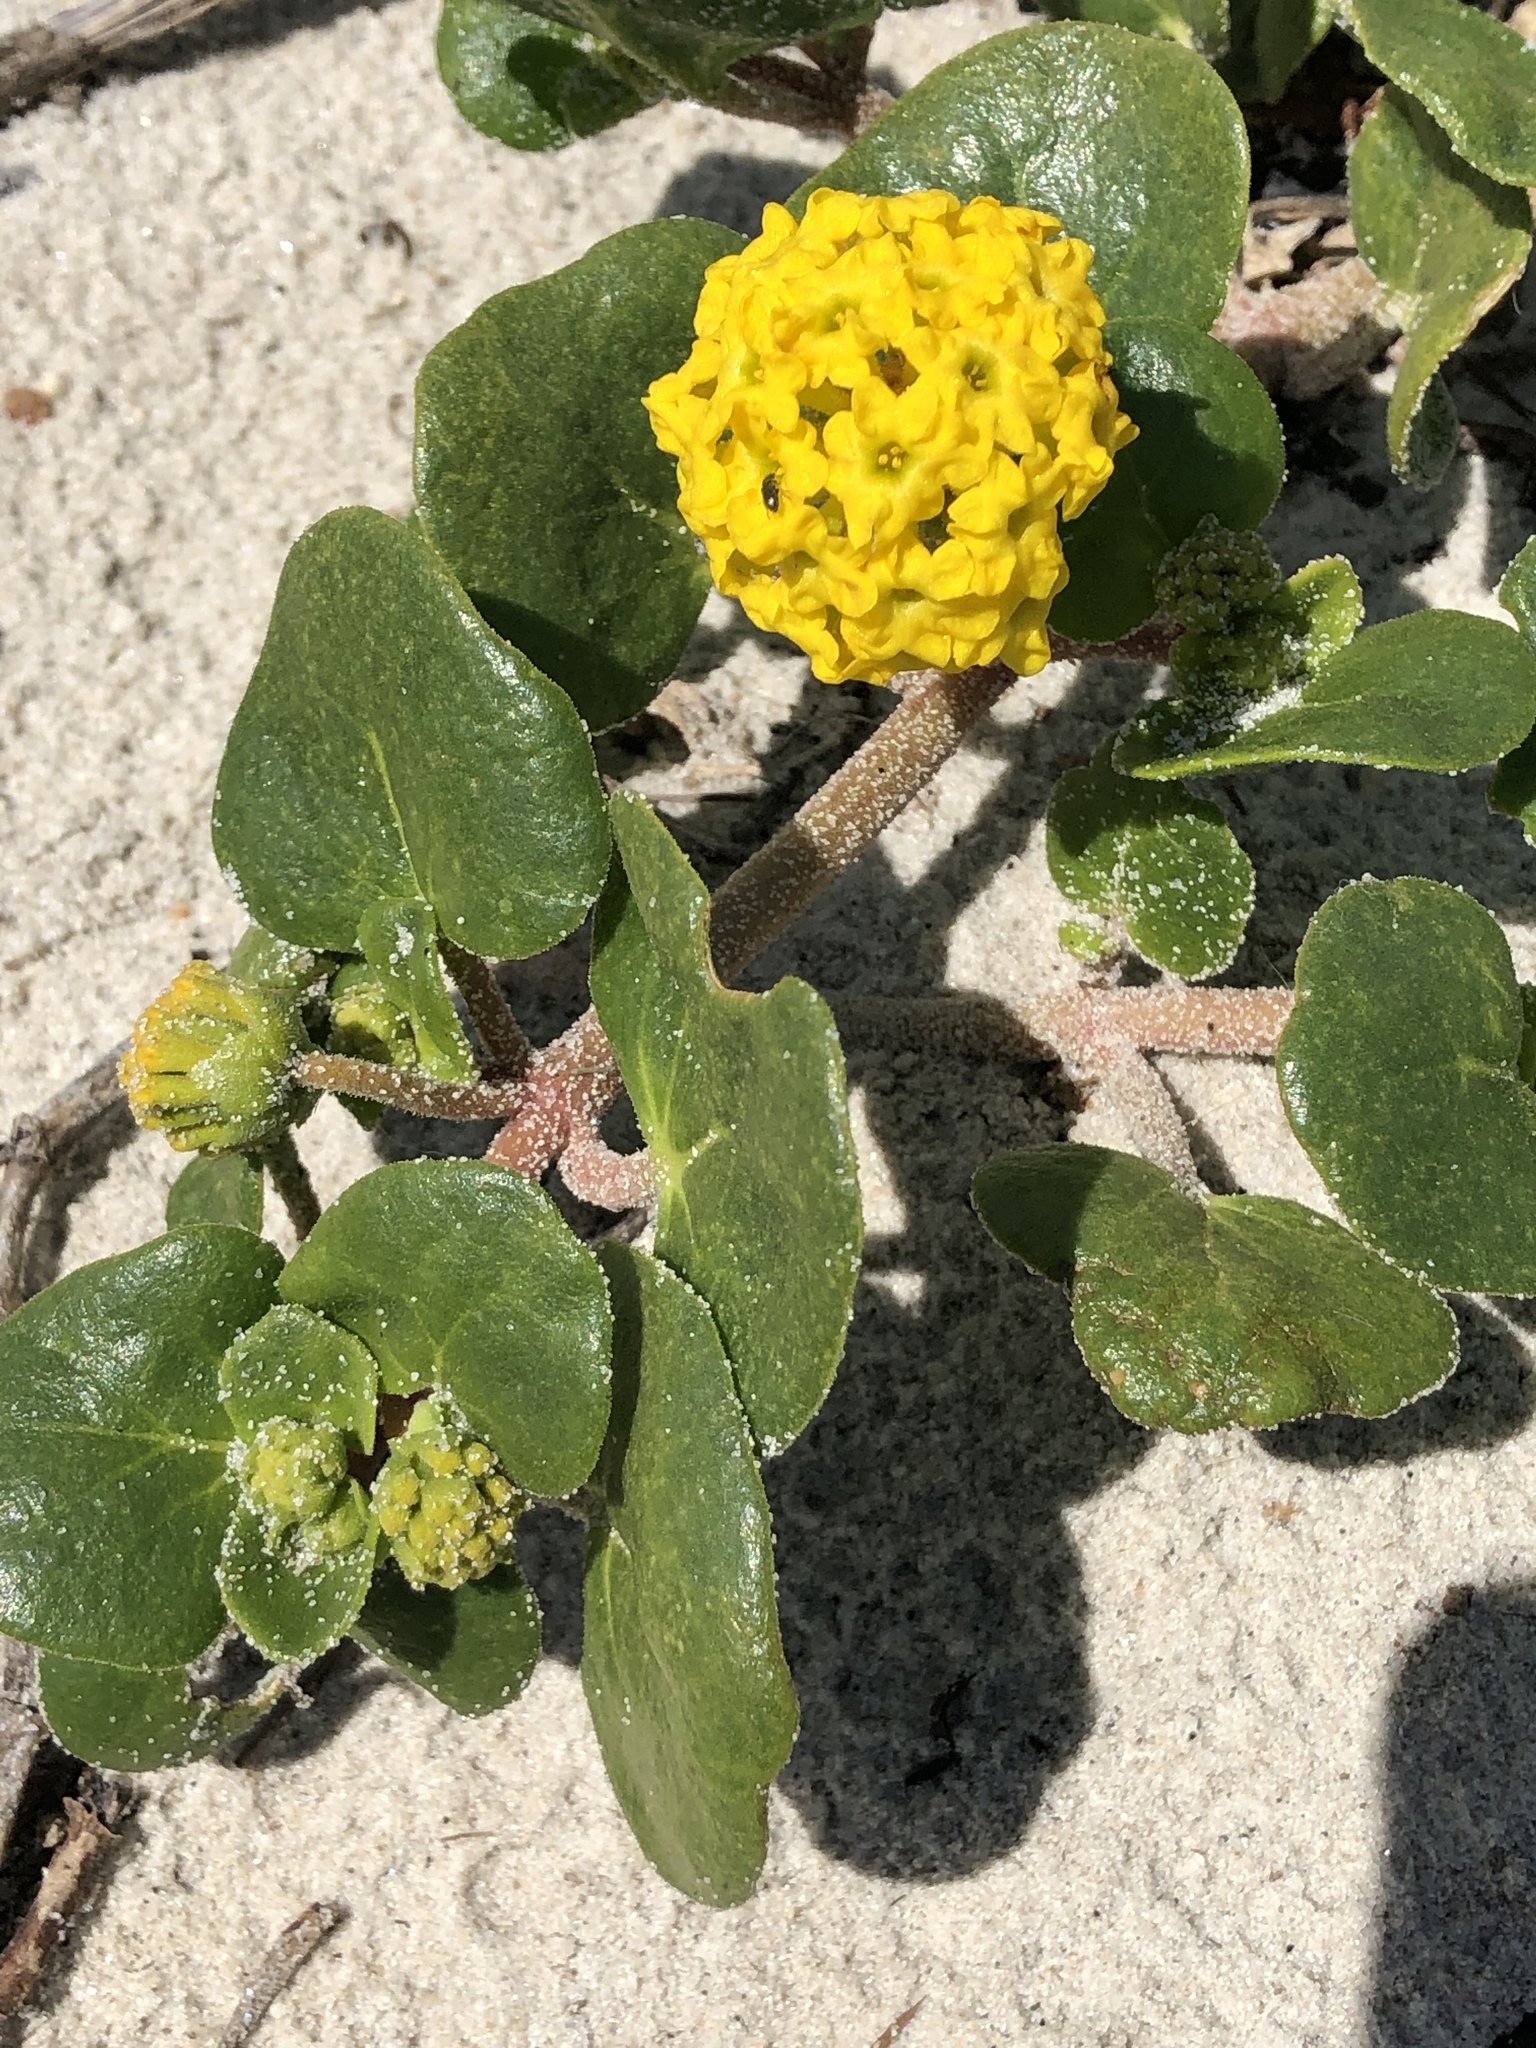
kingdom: Plantae
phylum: Tracheophyta
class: Magnoliopsida
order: Caryophyllales
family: Nyctaginaceae
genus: Abronia
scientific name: Abronia latifolia
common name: Yellow sand-verbena
